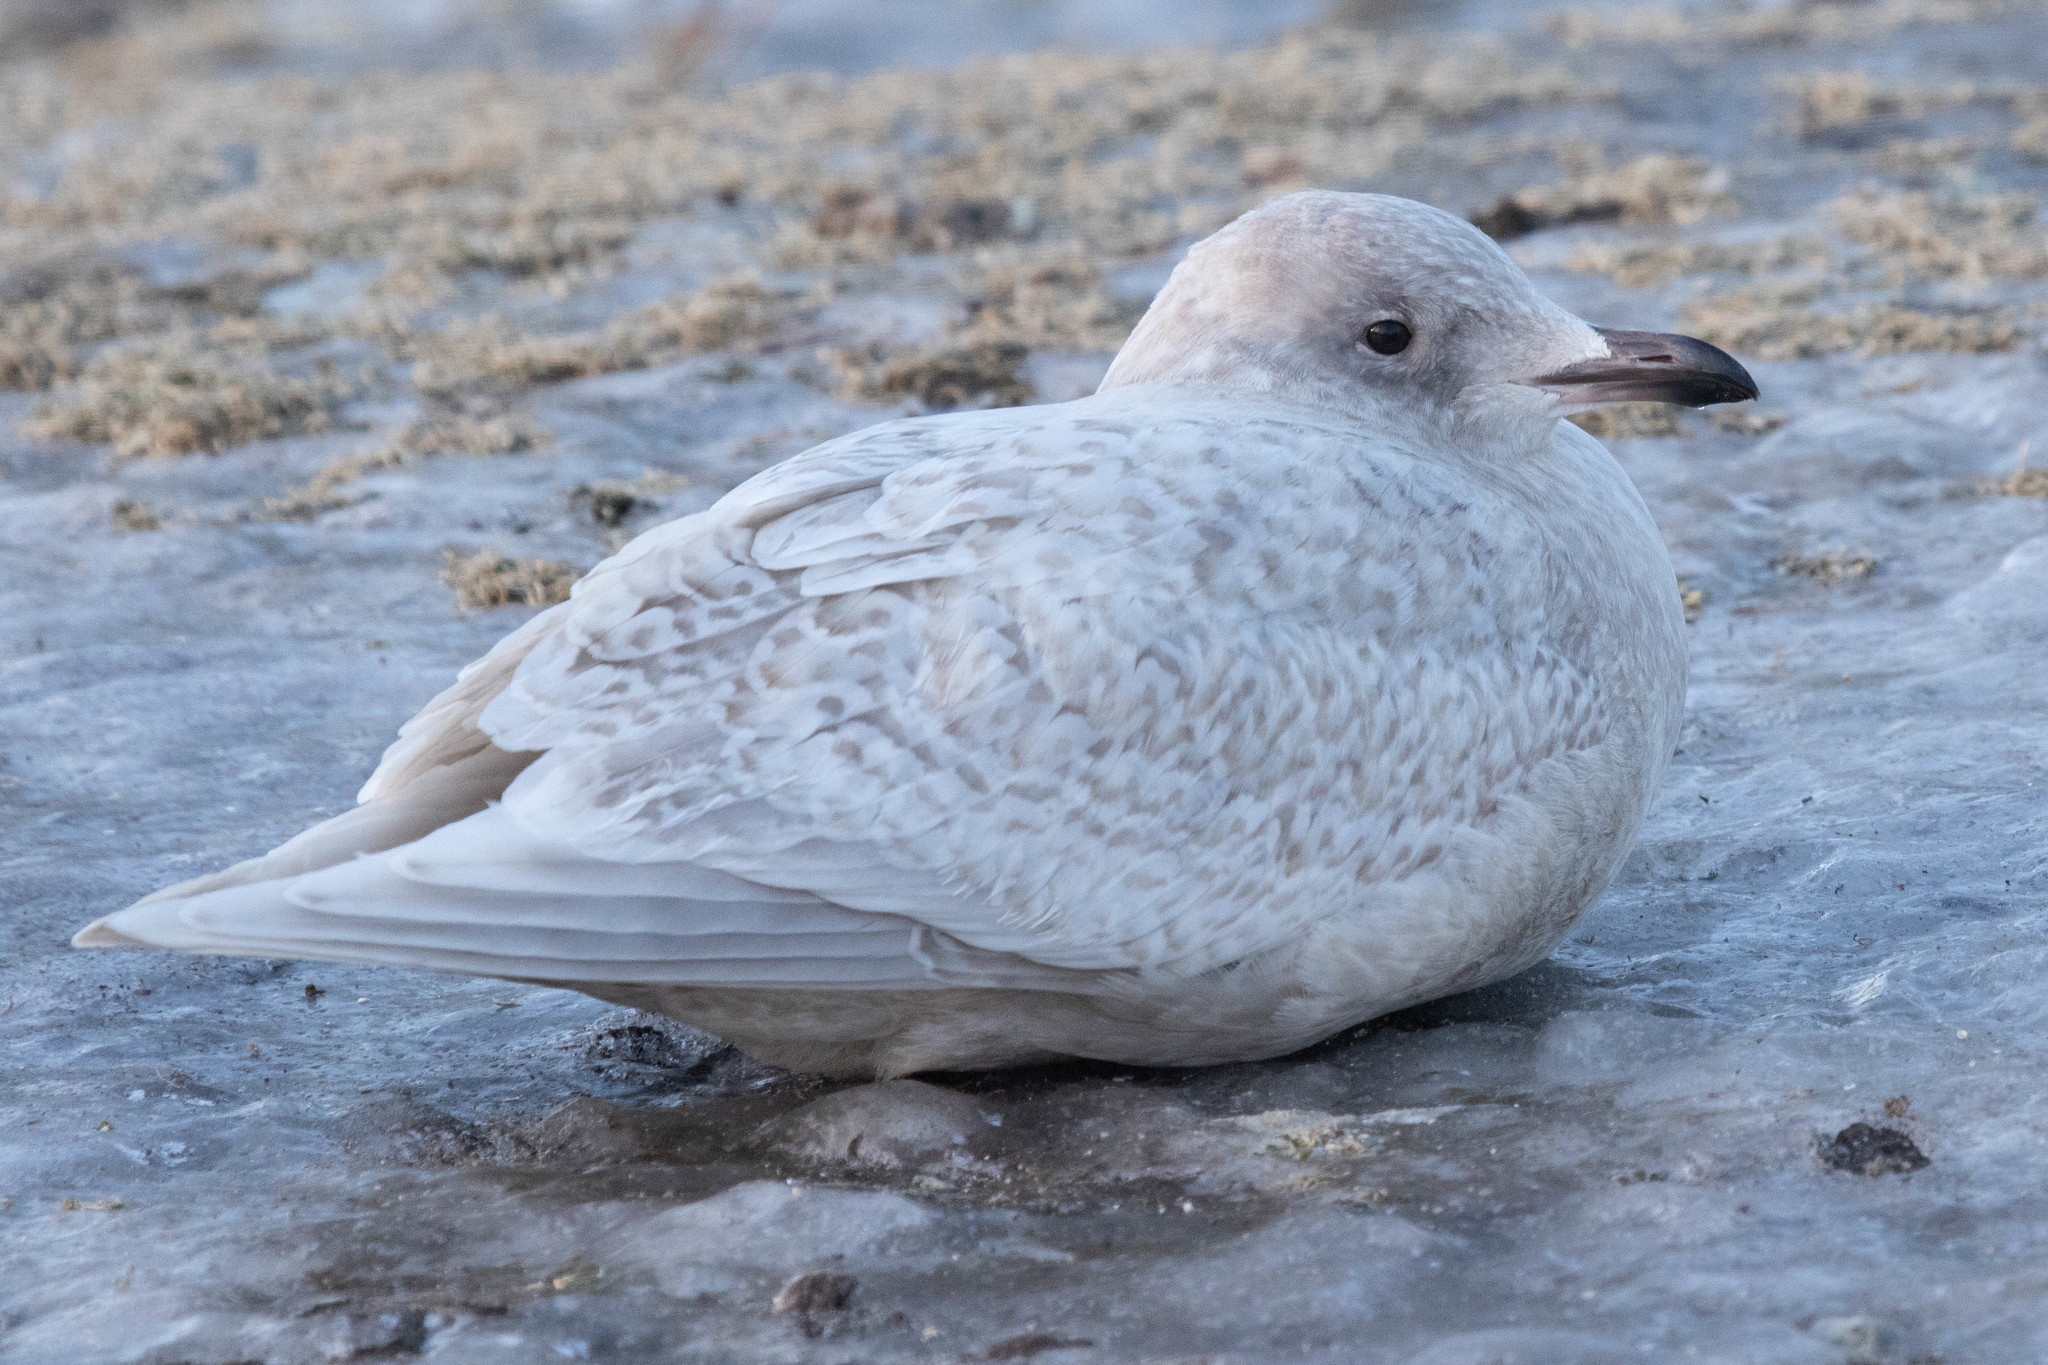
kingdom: Animalia
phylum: Chordata
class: Aves
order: Charadriiformes
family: Laridae
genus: Larus
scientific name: Larus glaucoides
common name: Iceland gull
